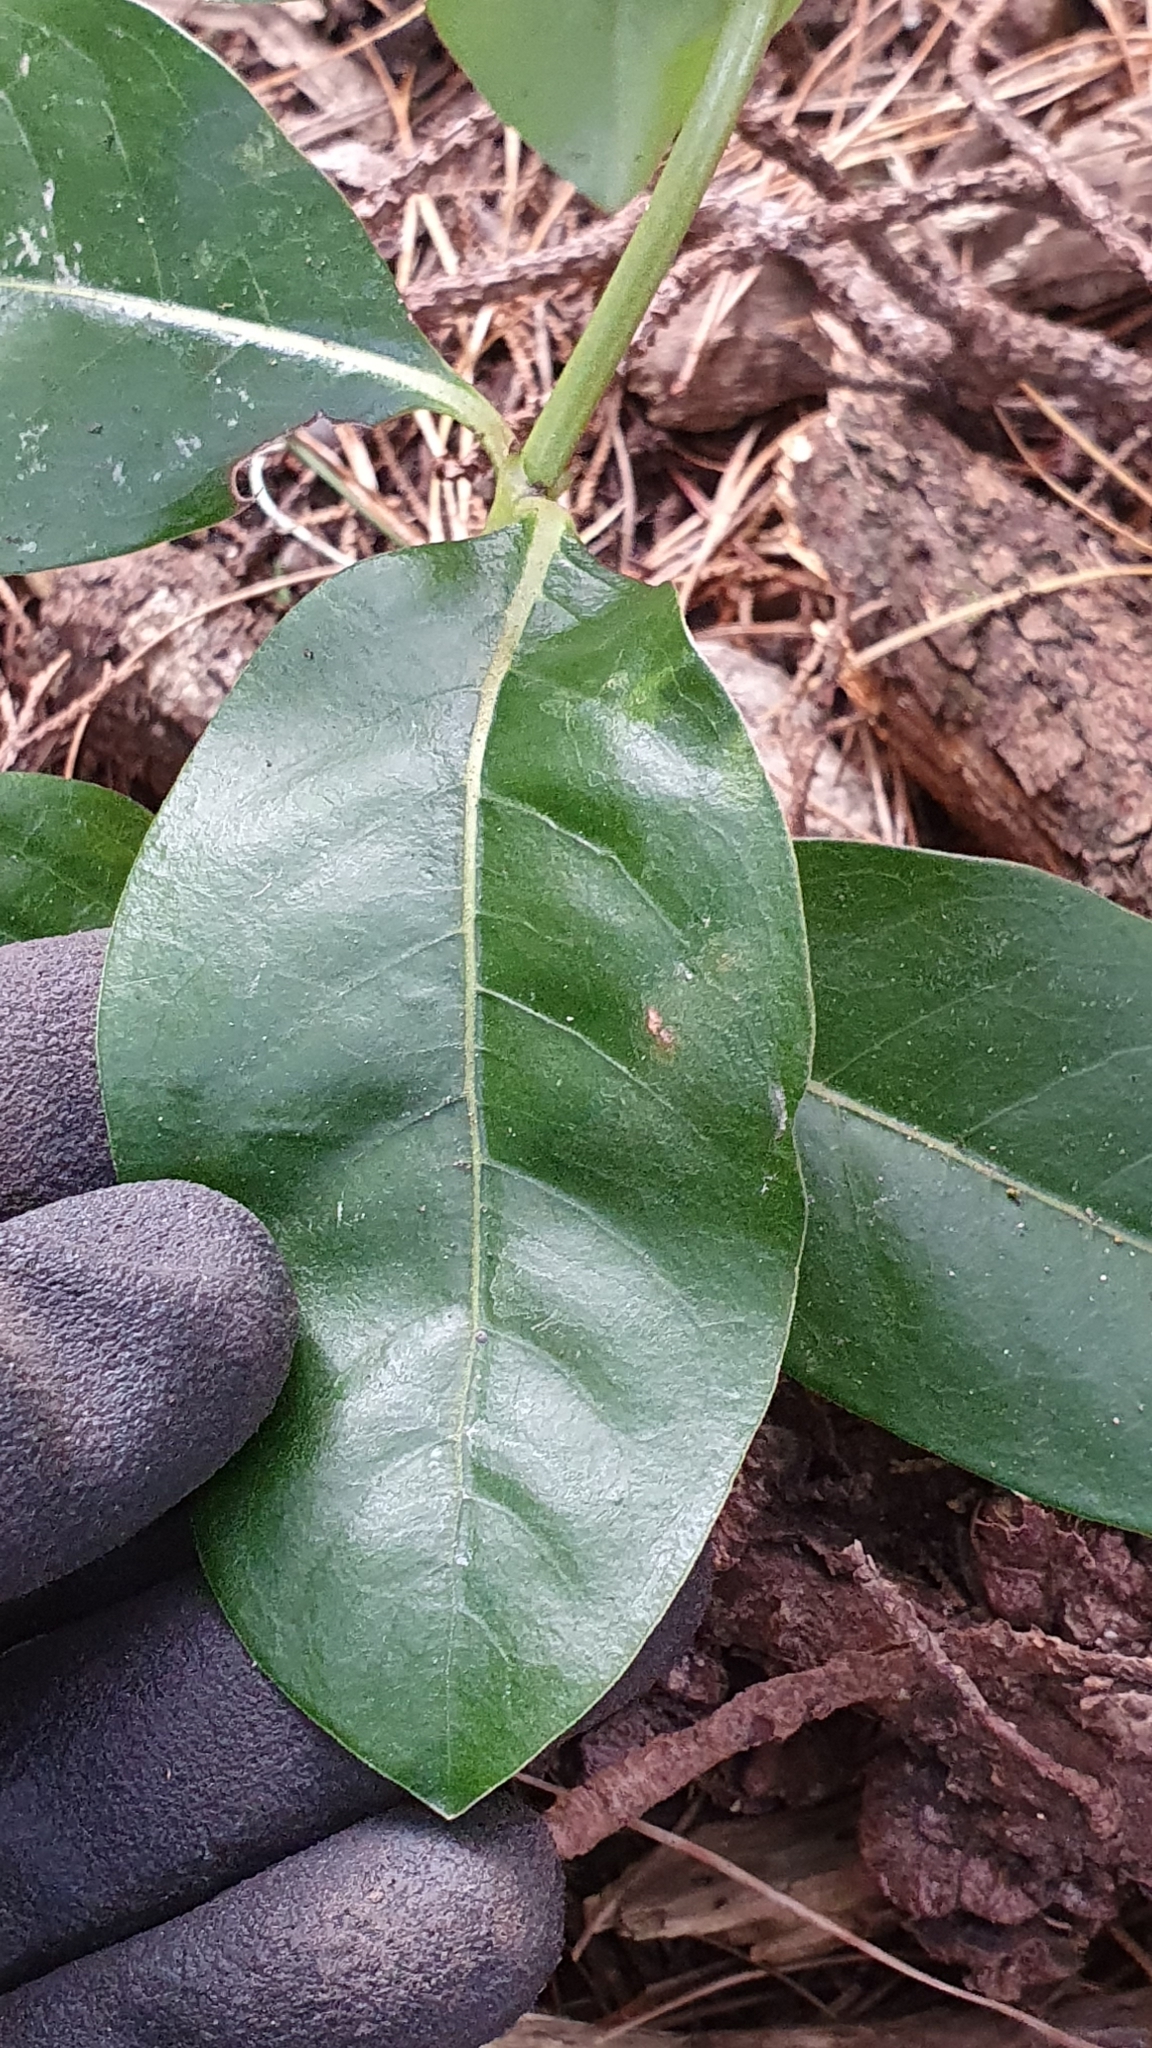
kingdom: Plantae
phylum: Tracheophyta
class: Magnoliopsida
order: Gentianales
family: Rubiaceae
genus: Coprosma
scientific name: Coprosma lucida
